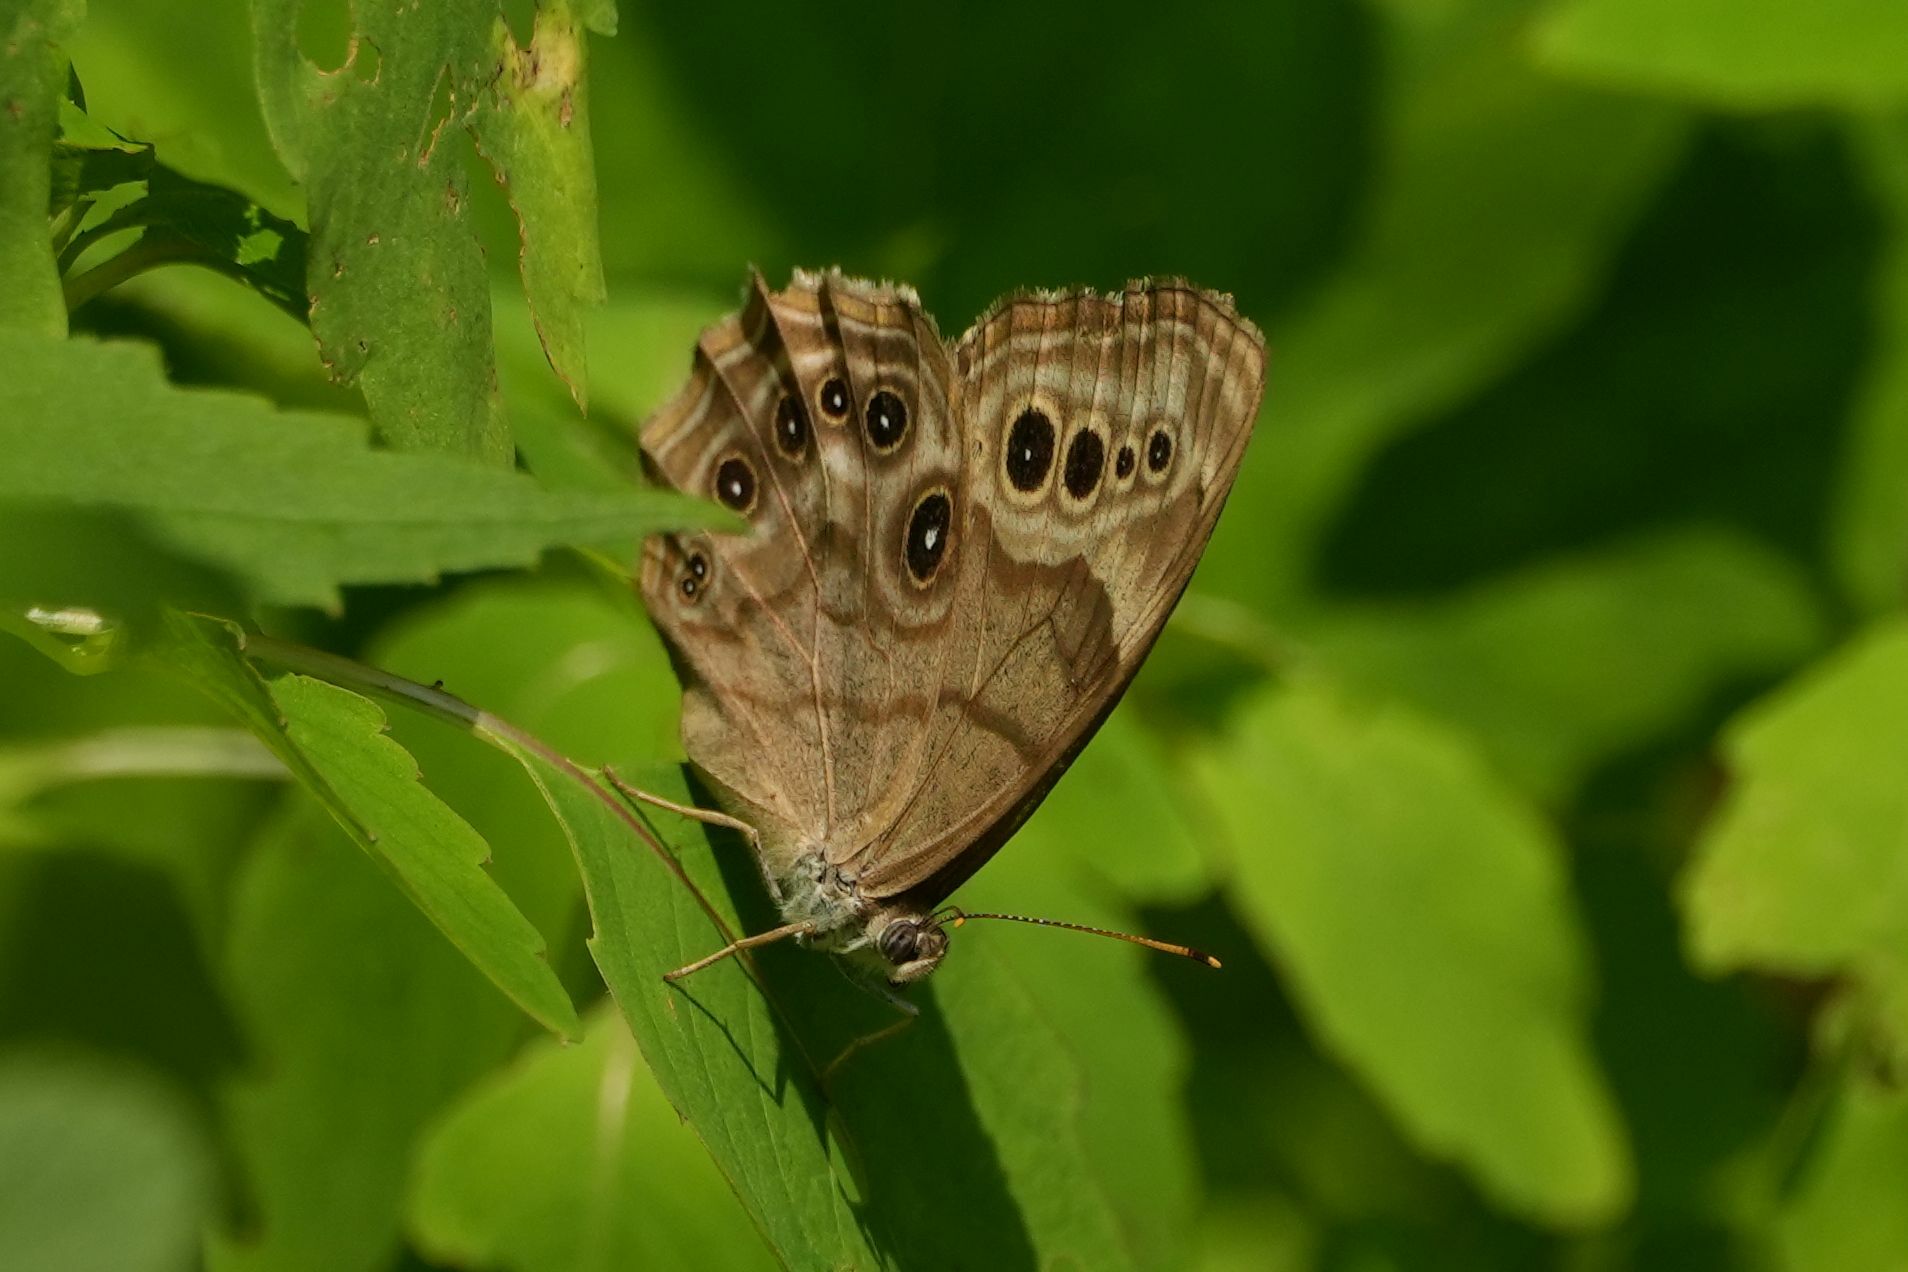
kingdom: Animalia
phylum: Arthropoda
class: Insecta
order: Lepidoptera
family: Nymphalidae
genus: Lethe
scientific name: Lethe anthedon
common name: Northern pearly-eye
